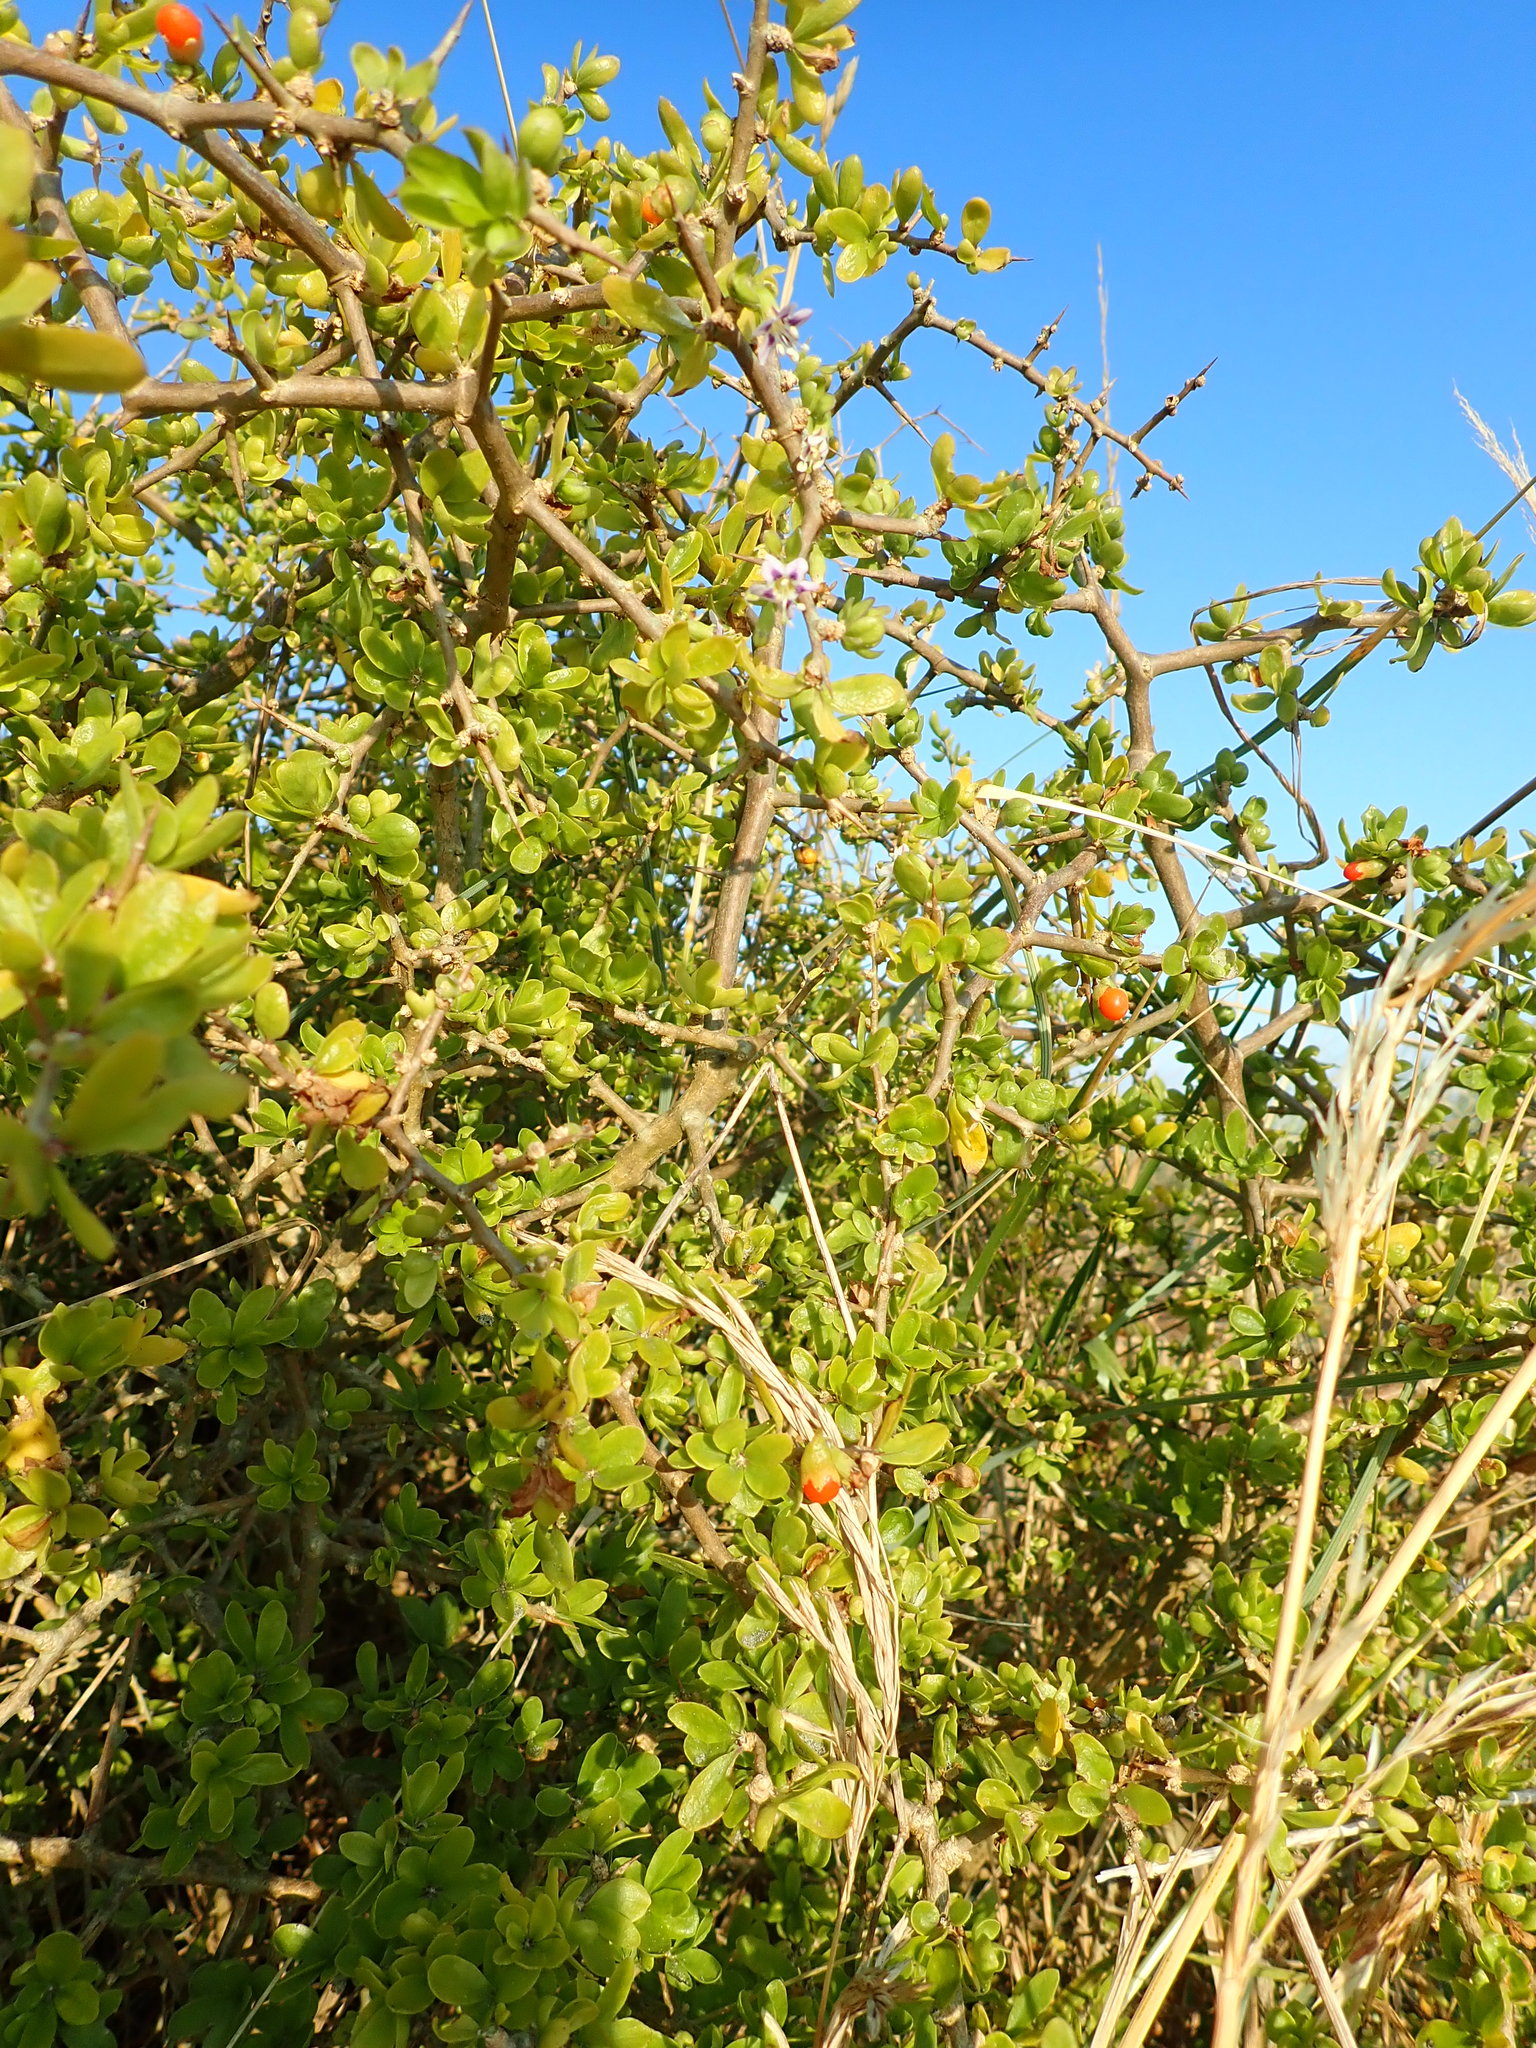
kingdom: Plantae
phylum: Tracheophyta
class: Magnoliopsida
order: Solanales
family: Solanaceae
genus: Lycium
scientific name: Lycium ferocissimum
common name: African boxthorn
